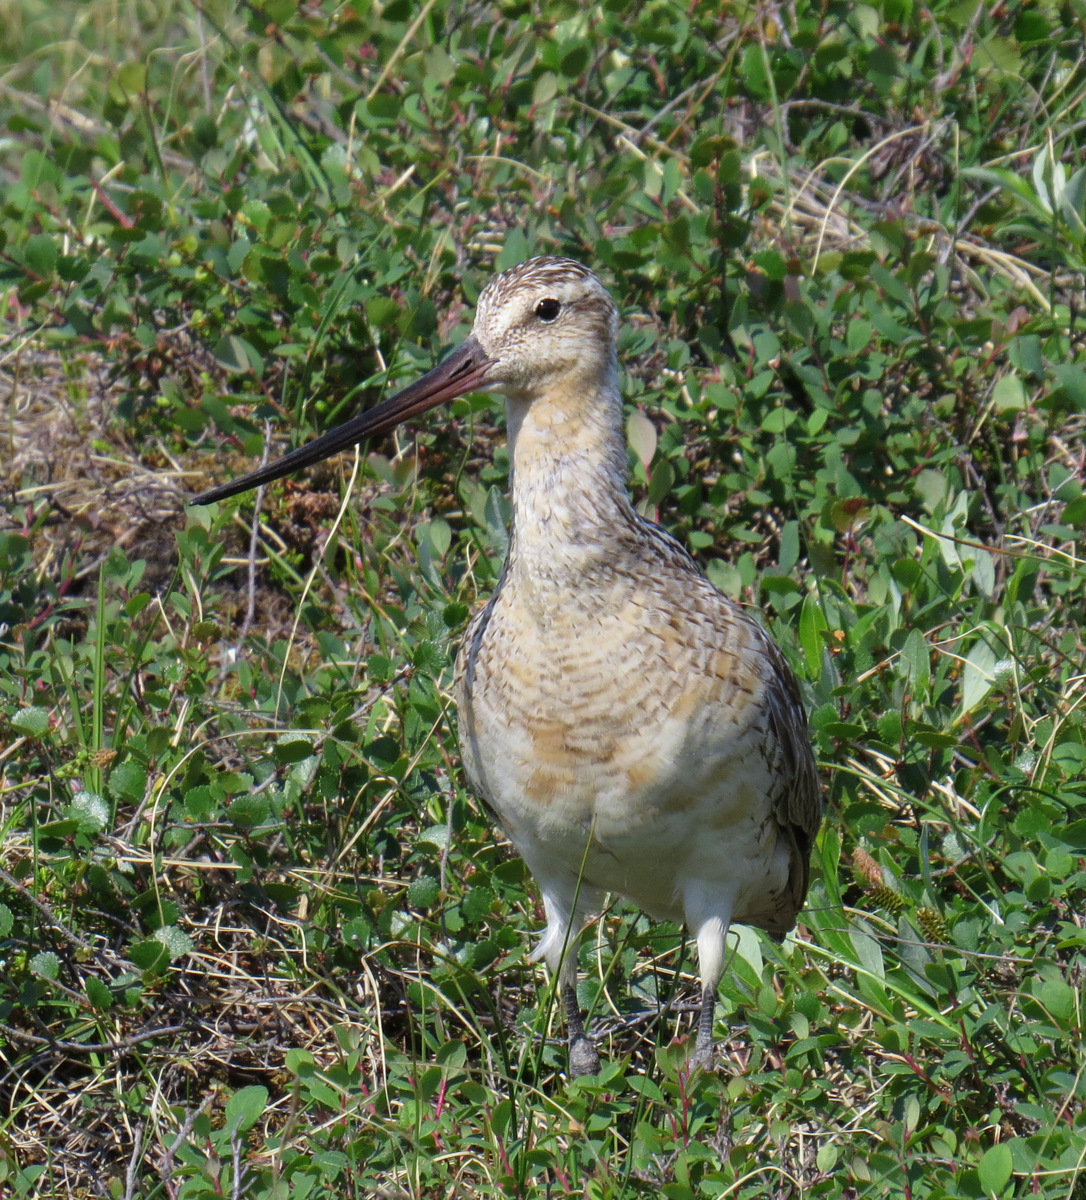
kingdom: Animalia
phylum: Chordata
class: Aves
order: Charadriiformes
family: Scolopacidae
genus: Limosa
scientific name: Limosa lapponica
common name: Bar-tailed godwit
